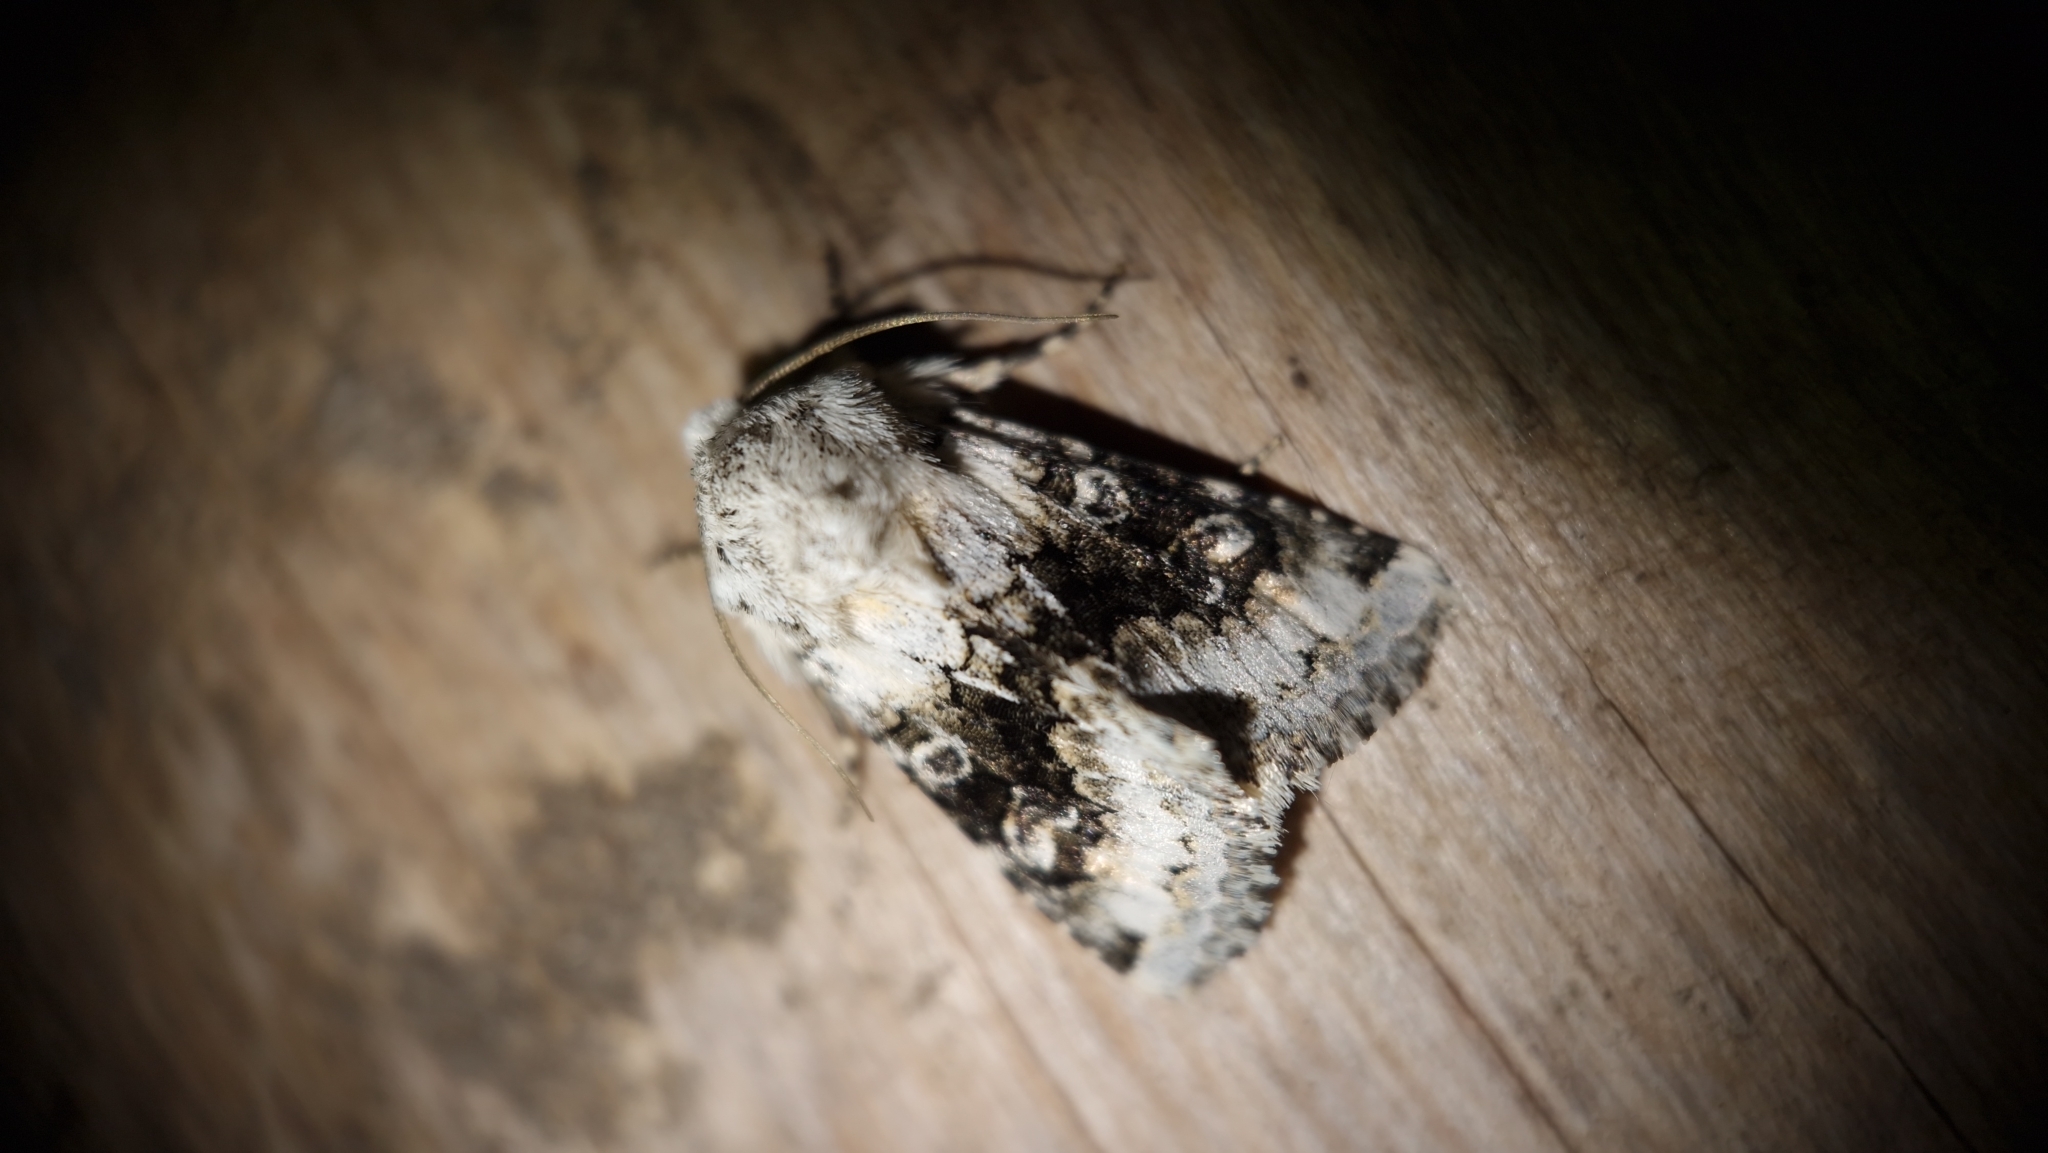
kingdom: Animalia
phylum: Arthropoda
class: Insecta
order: Lepidoptera
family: Noctuidae
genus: Hecatera
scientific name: Hecatera bicolorata
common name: Broad-barred white
